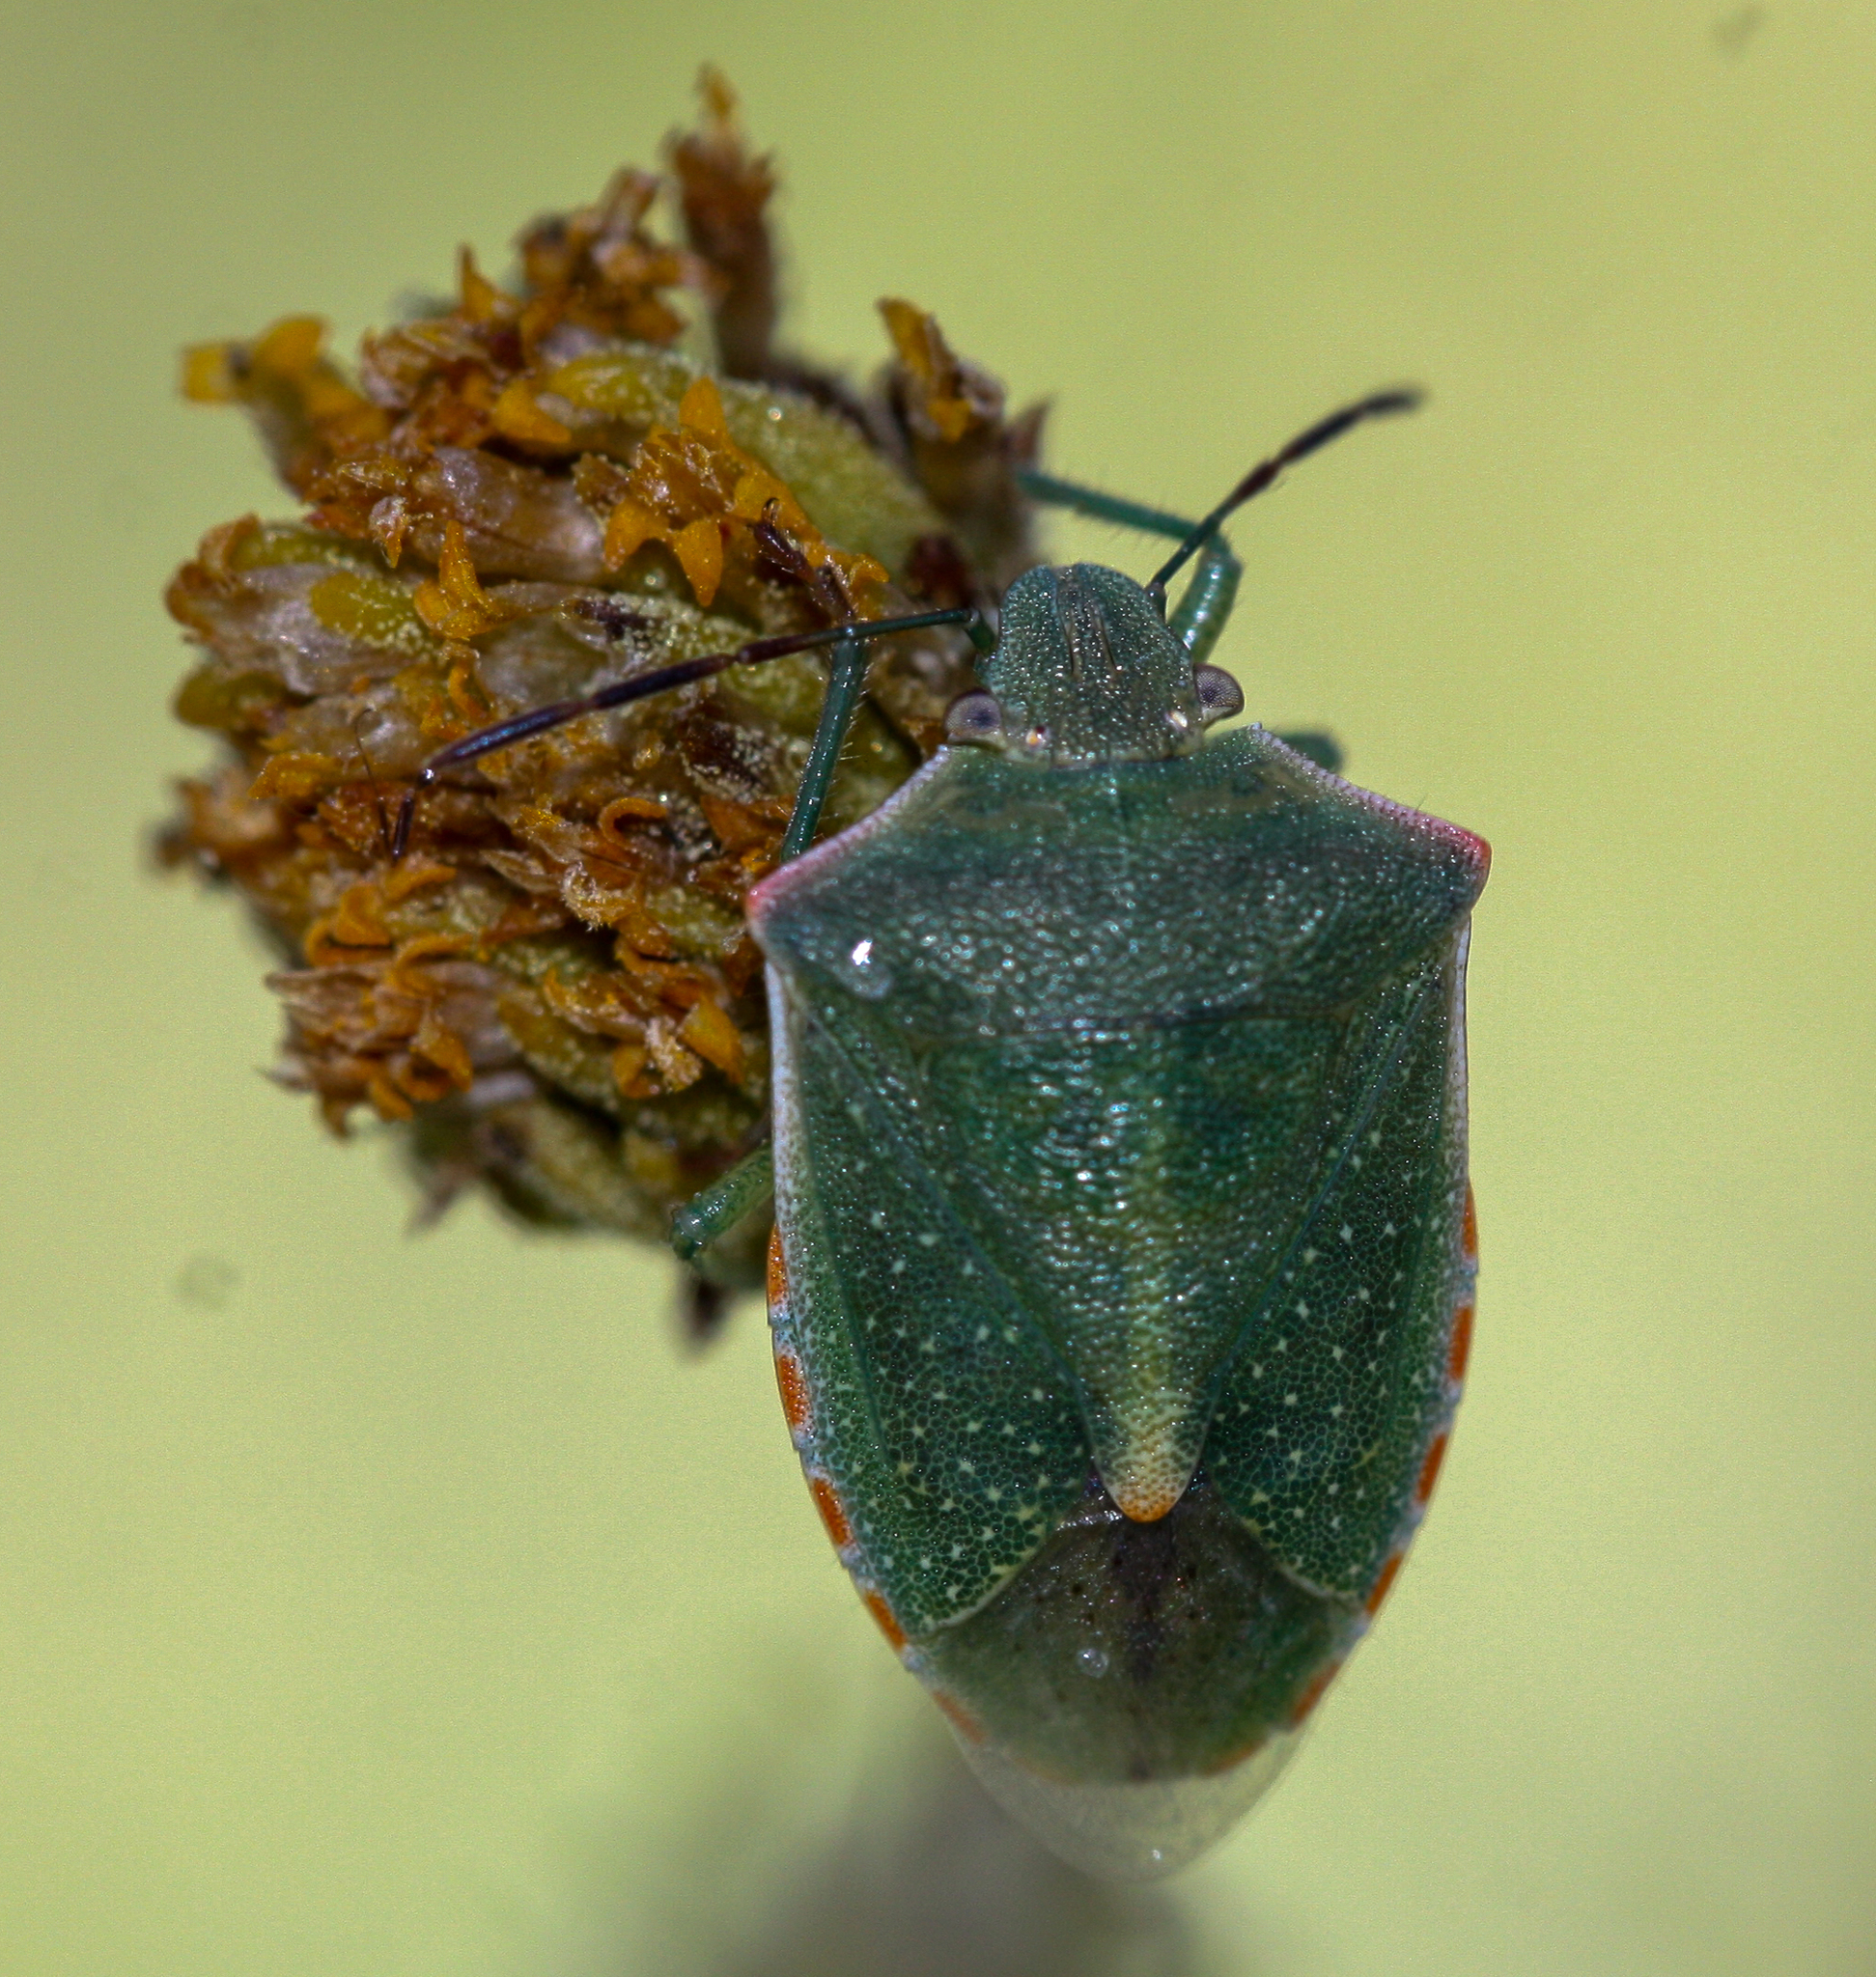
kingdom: Animalia
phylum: Arthropoda
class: Insecta
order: Hemiptera
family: Pentatomidae
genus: Thyanta
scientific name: Thyanta accerra
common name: Stink bug
